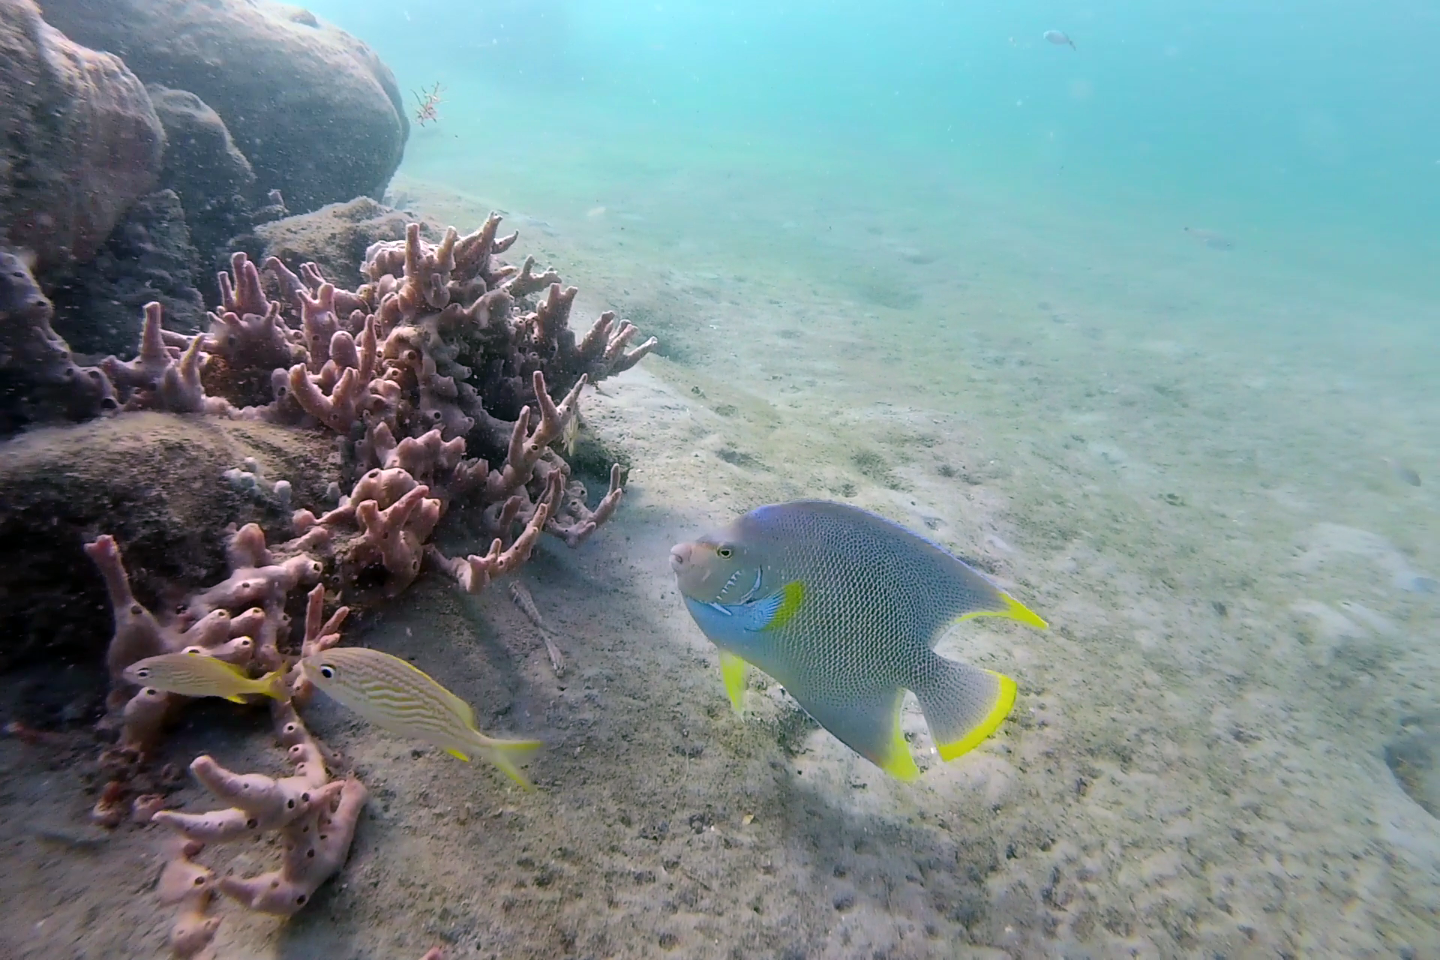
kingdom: Animalia
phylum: Chordata
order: Perciformes
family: Pomacanthidae
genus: Holacanthus
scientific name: Holacanthus bermudensis
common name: Blue angelfish
